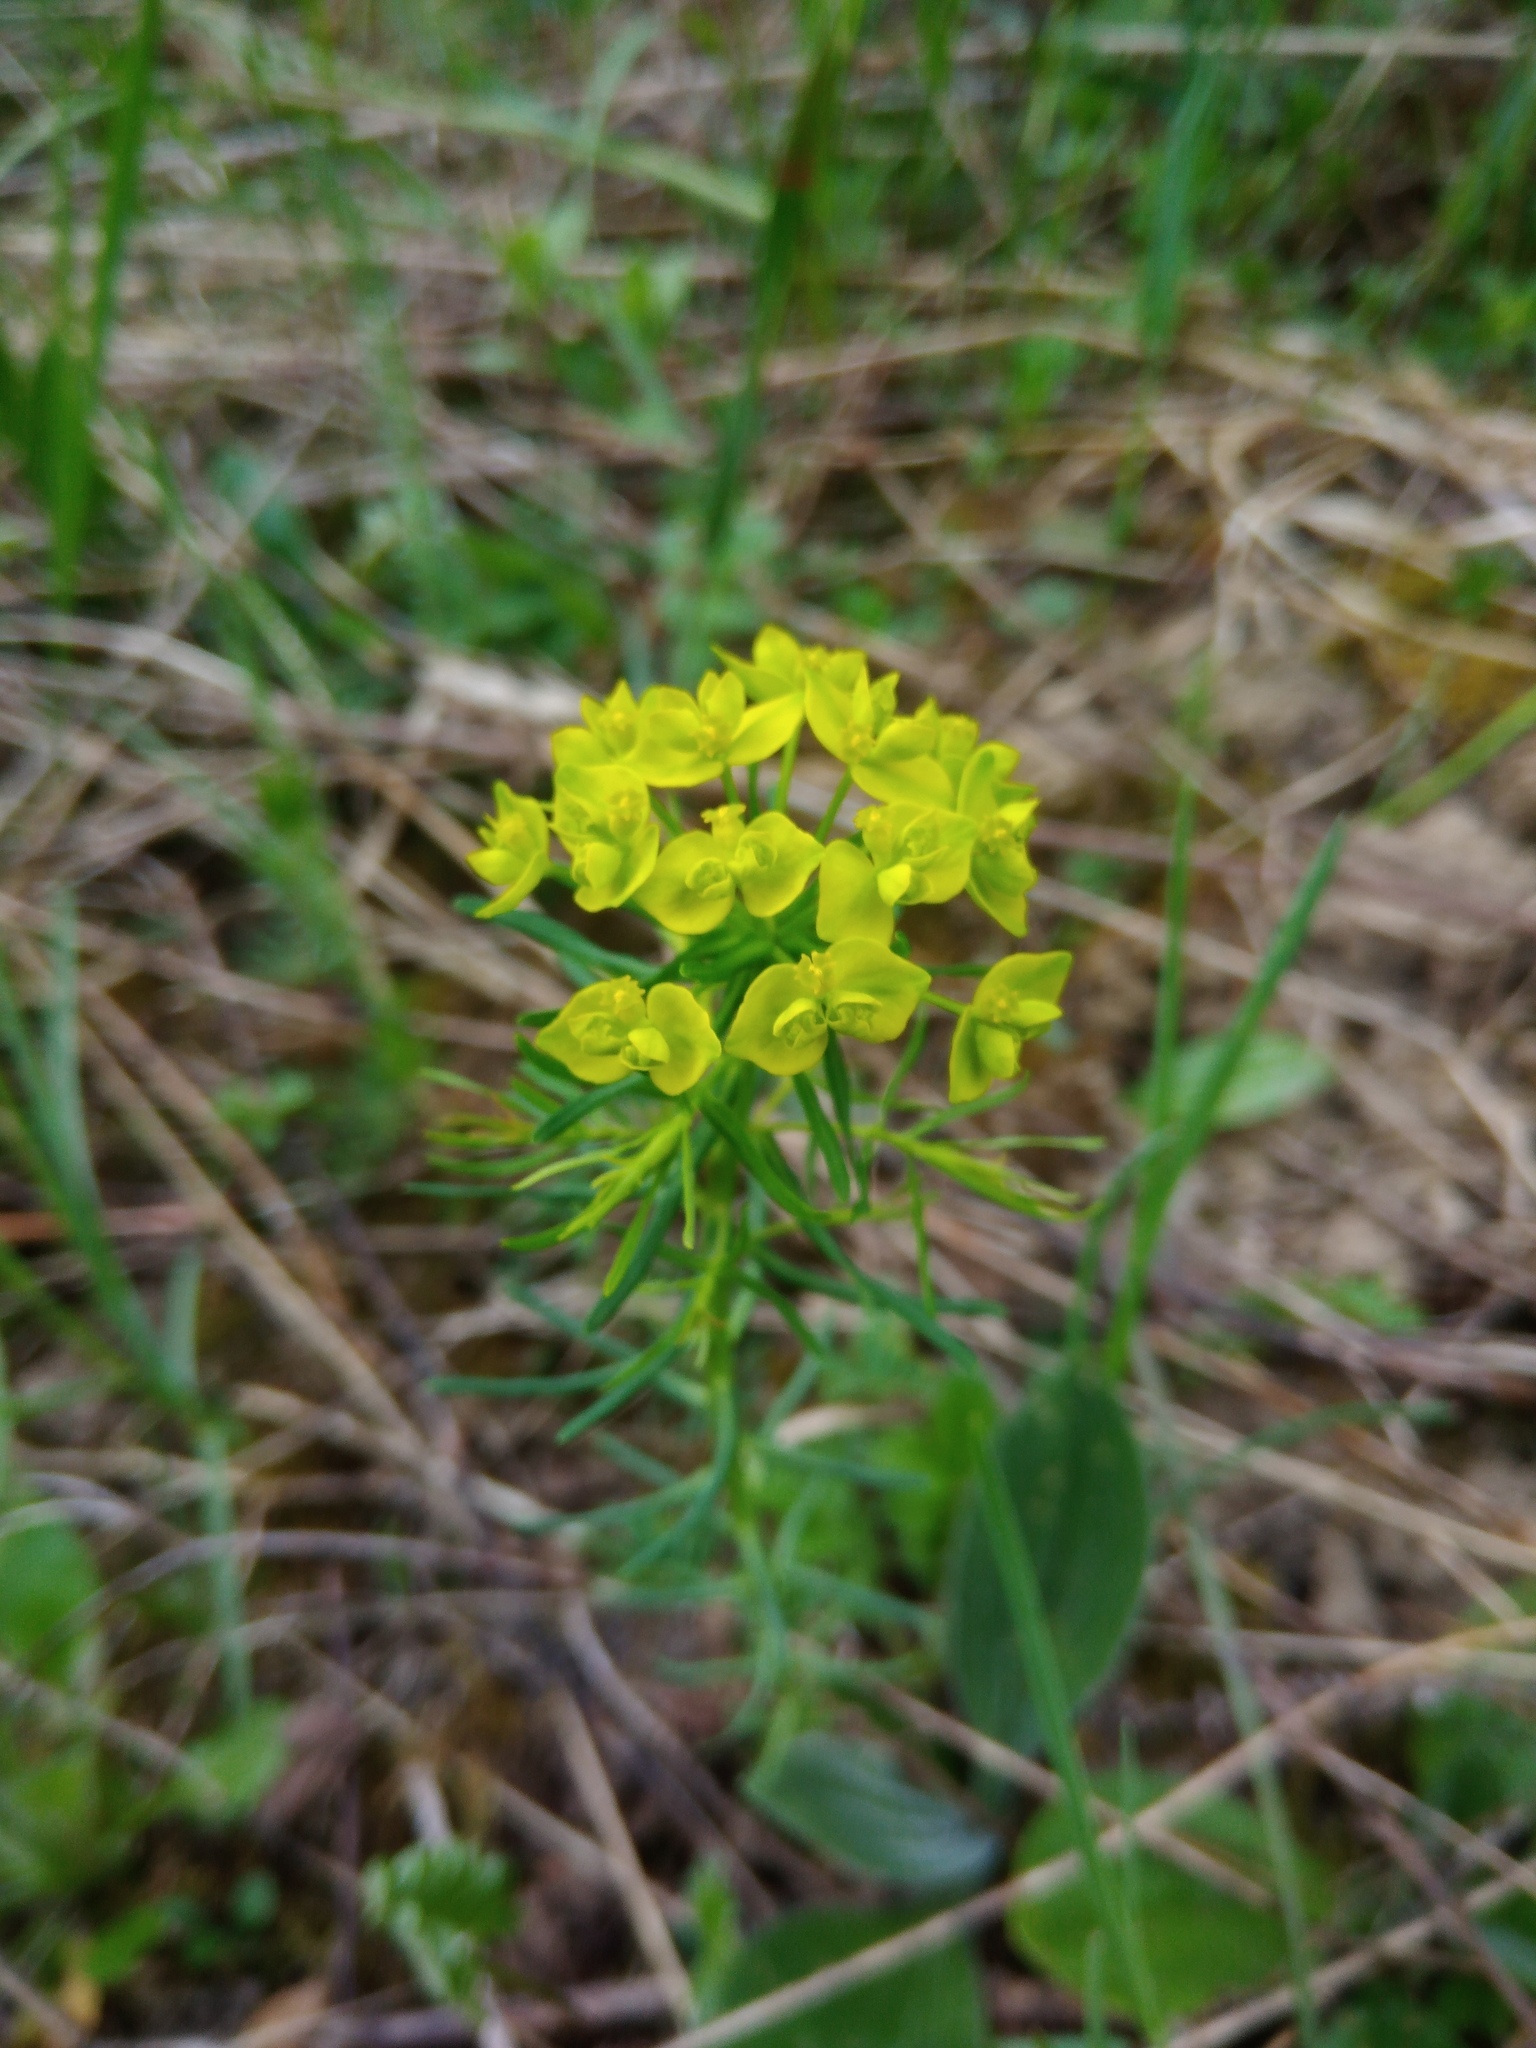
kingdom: Plantae
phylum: Tracheophyta
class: Magnoliopsida
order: Malpighiales
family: Euphorbiaceae
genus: Euphorbia
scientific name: Euphorbia cyparissias
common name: Cypress spurge
